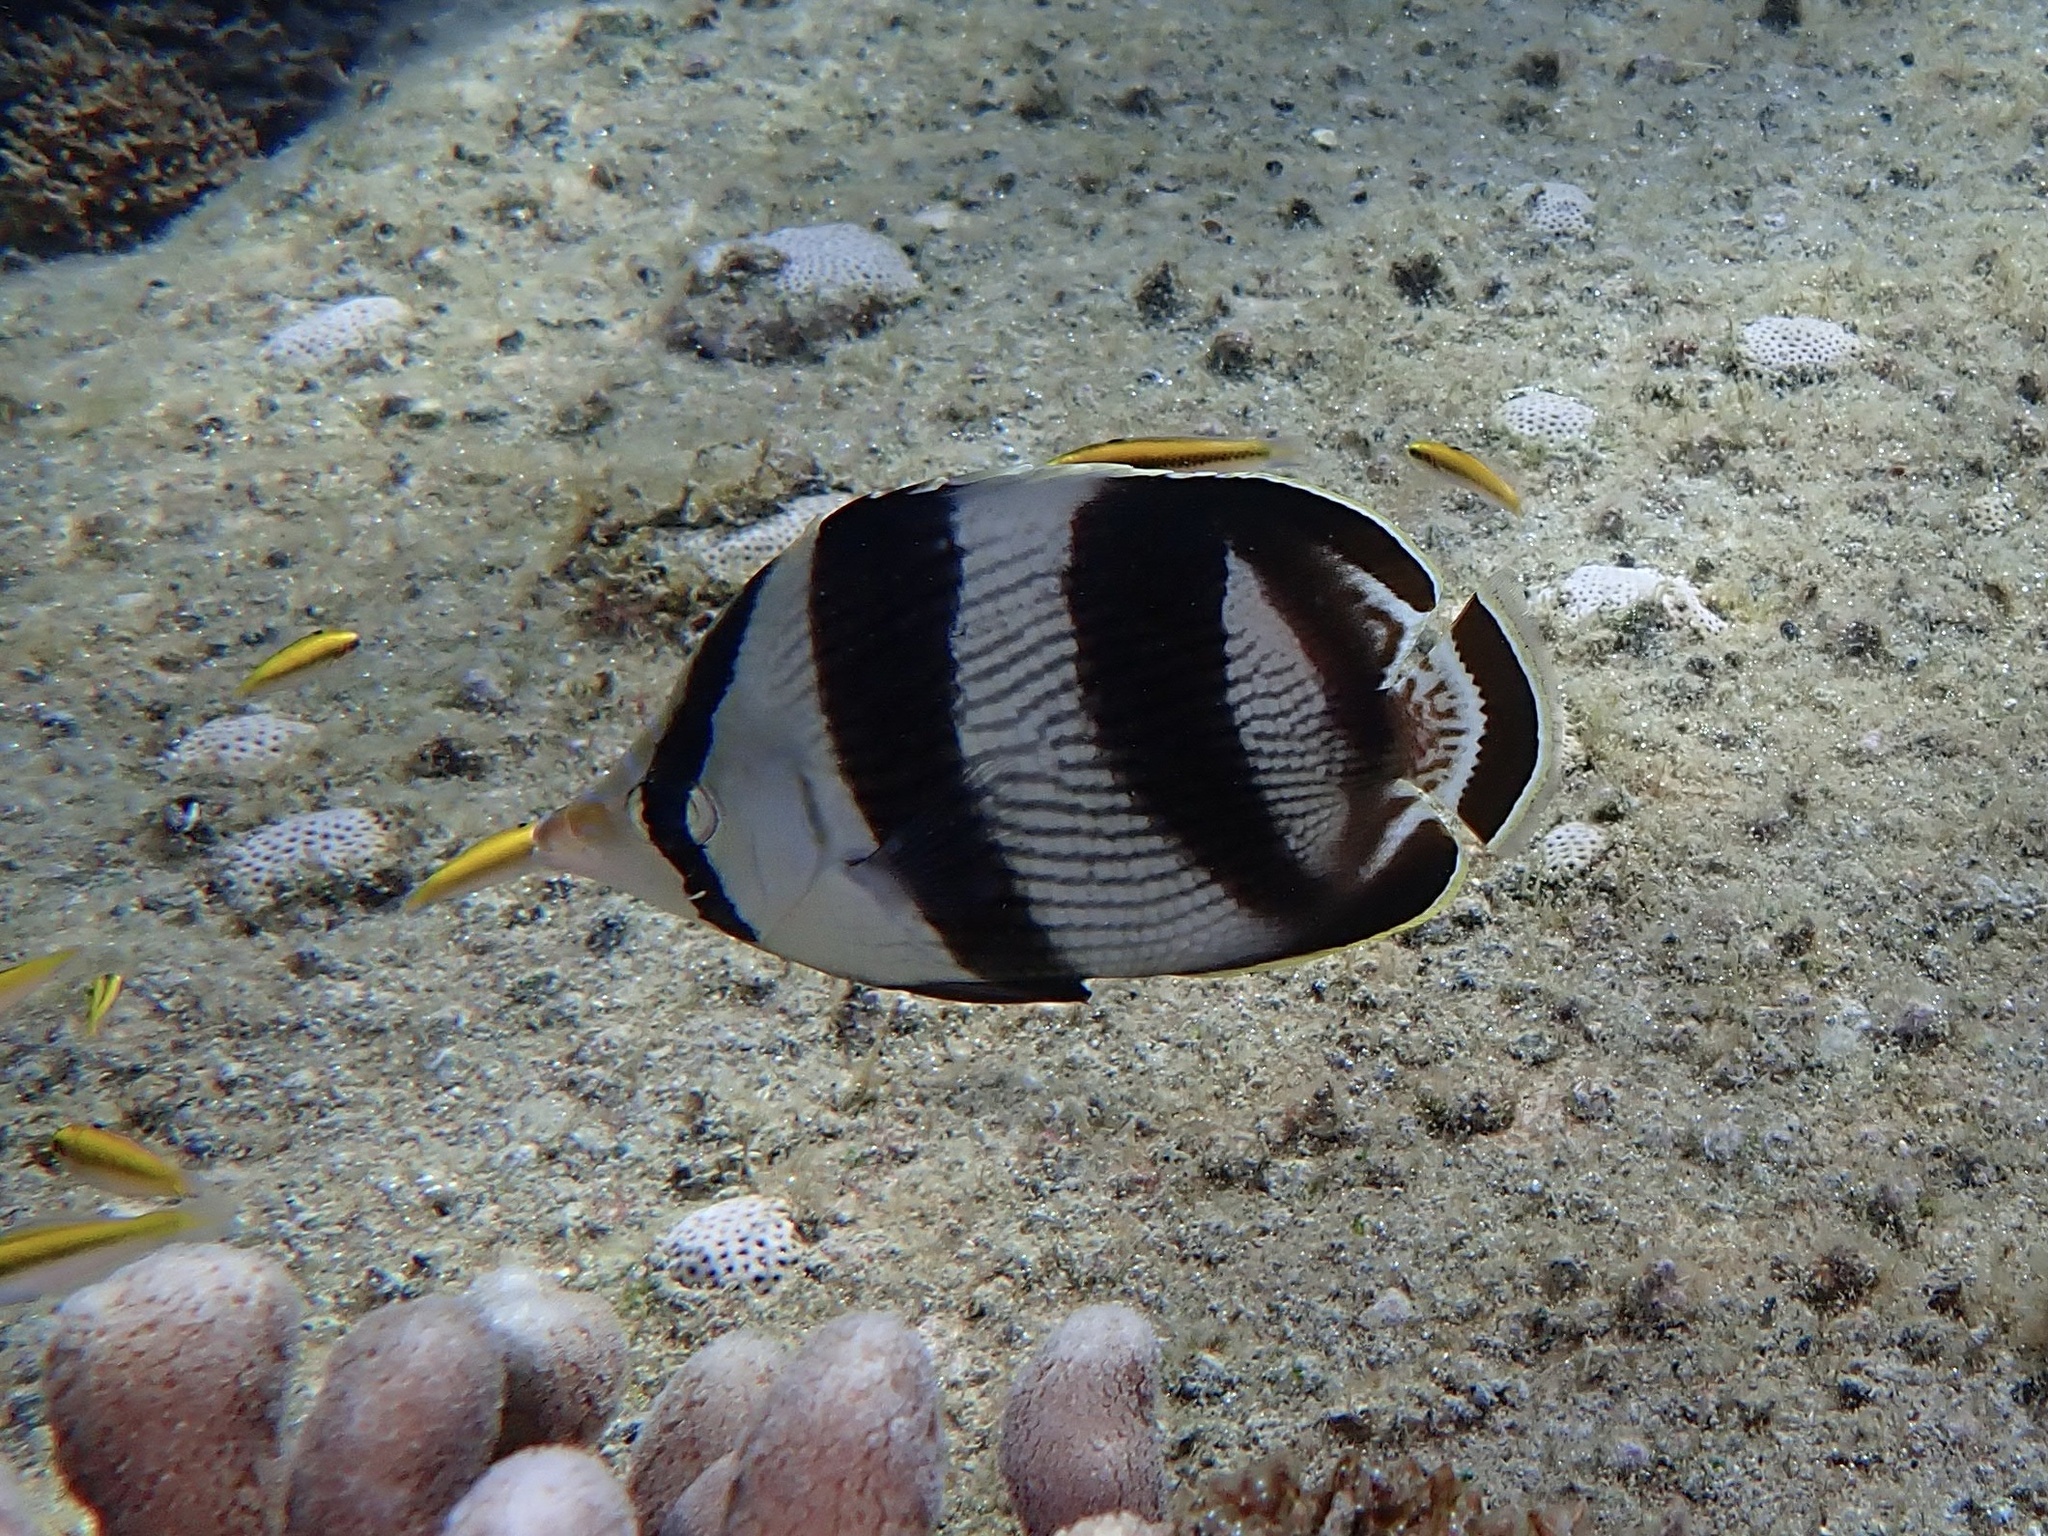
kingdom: Animalia
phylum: Chordata
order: Perciformes
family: Chaetodontidae
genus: Chaetodon
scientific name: Chaetodon striatus
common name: Banded butterflyfish
